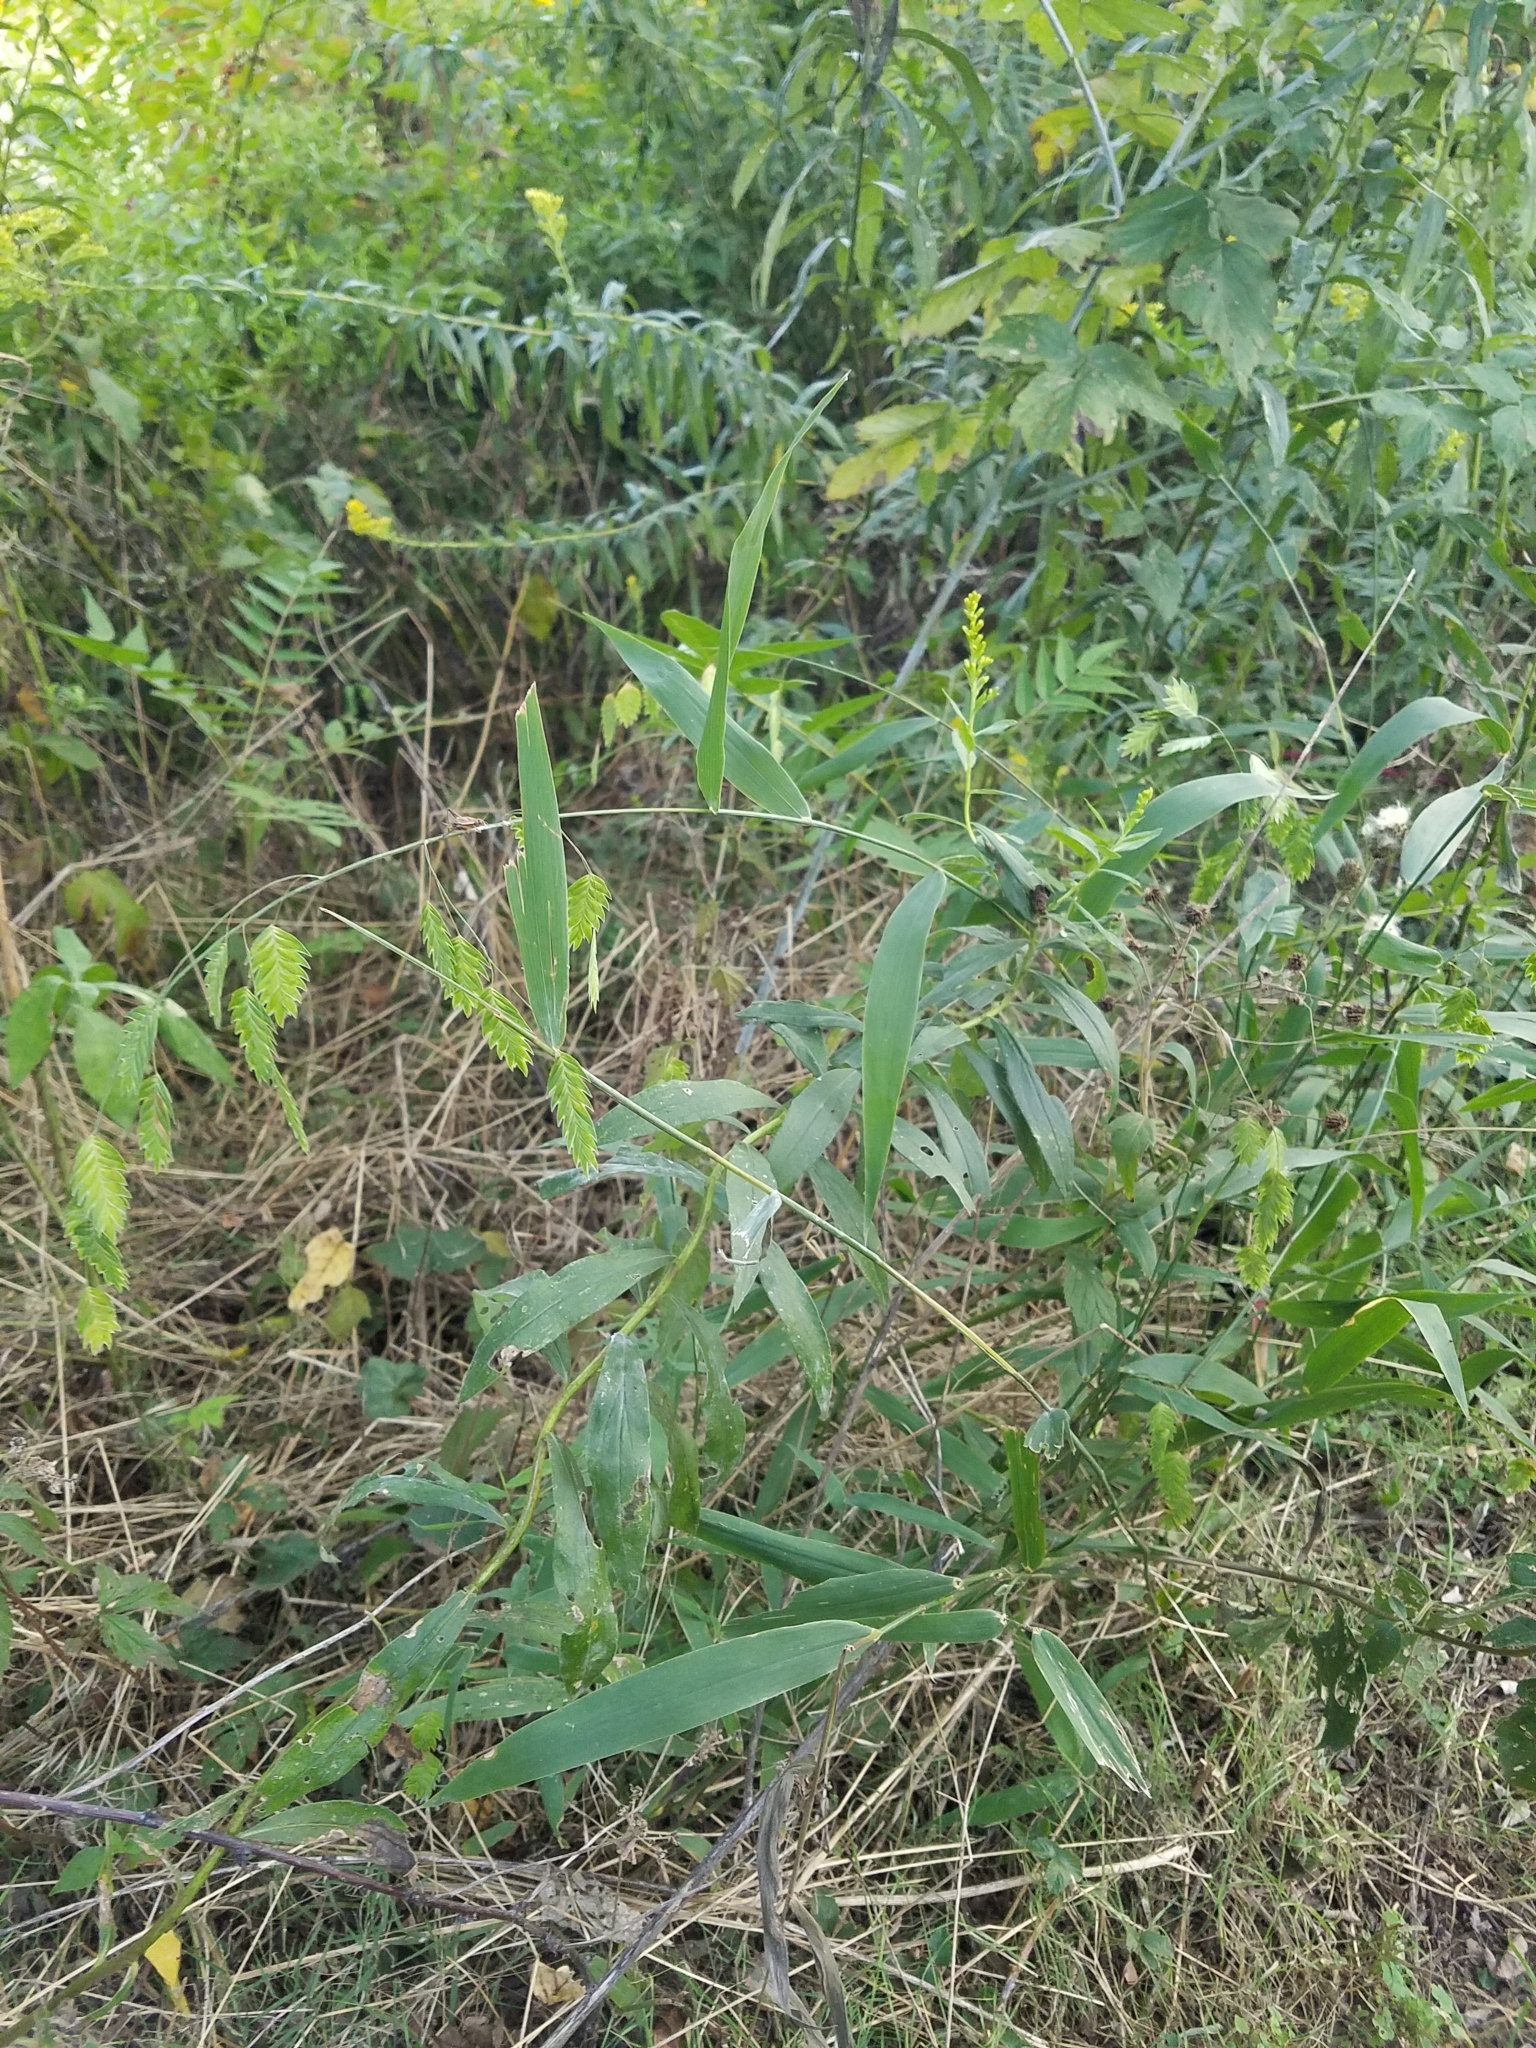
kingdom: Plantae
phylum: Tracheophyta
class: Liliopsida
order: Poales
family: Poaceae
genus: Chasmanthium
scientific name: Chasmanthium latifolium
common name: Broad-leaved chasmanthium
